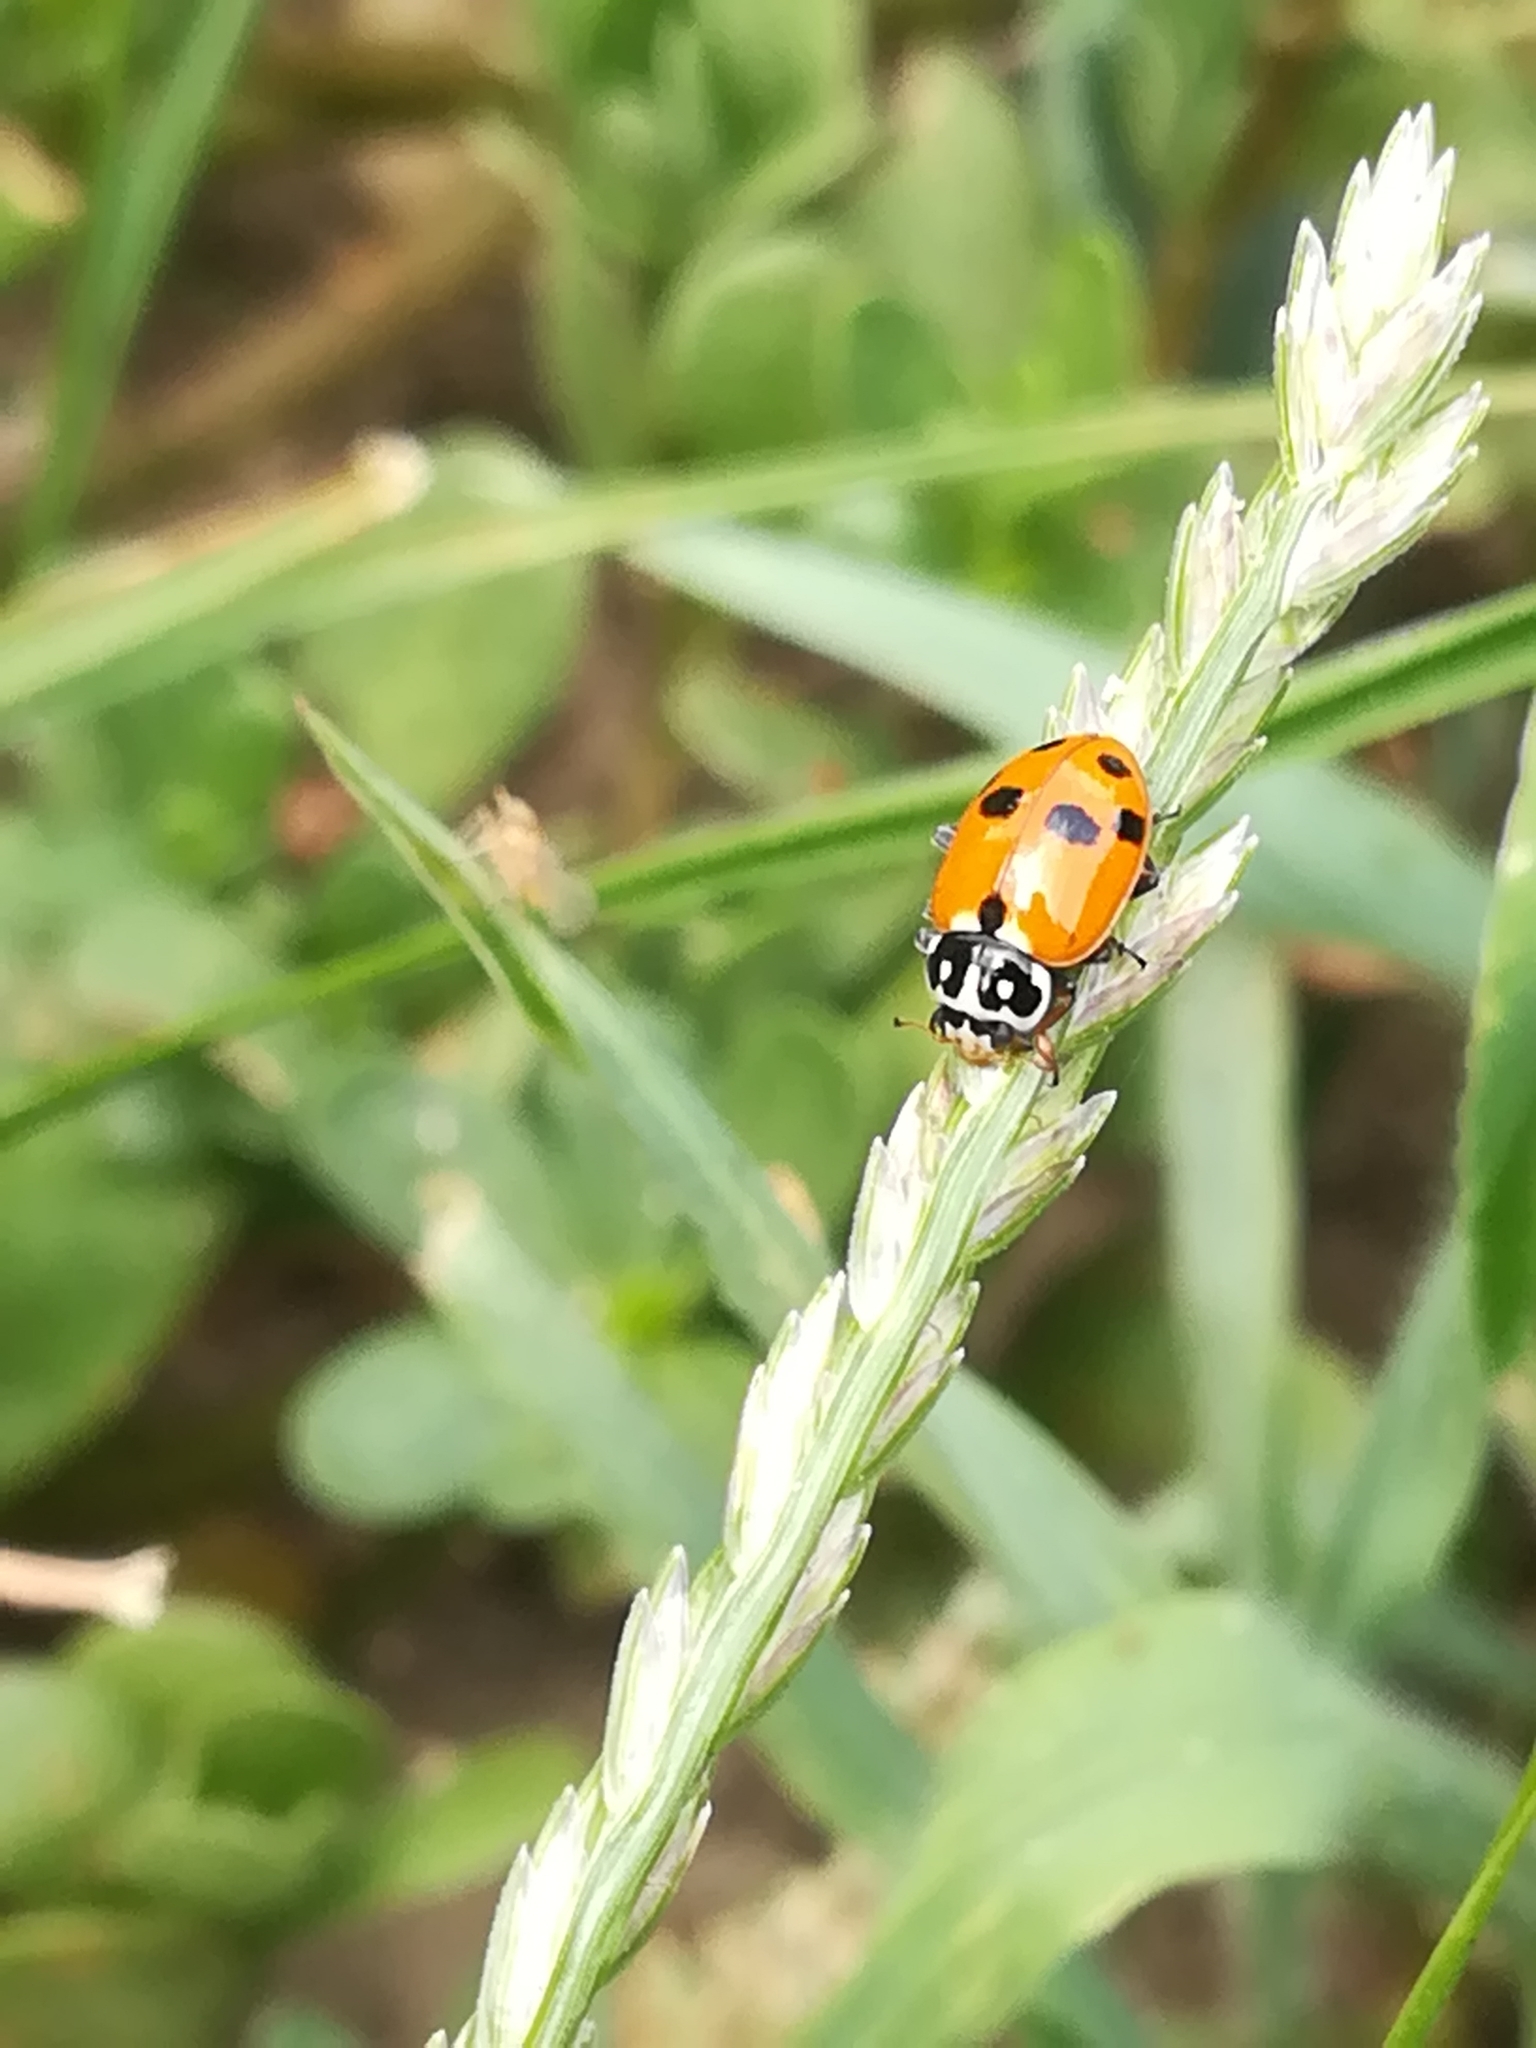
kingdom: Animalia
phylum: Arthropoda
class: Insecta
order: Coleoptera
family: Coccinellidae
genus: Hippodamia
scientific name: Hippodamia variegata
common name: Ladybird beetle
